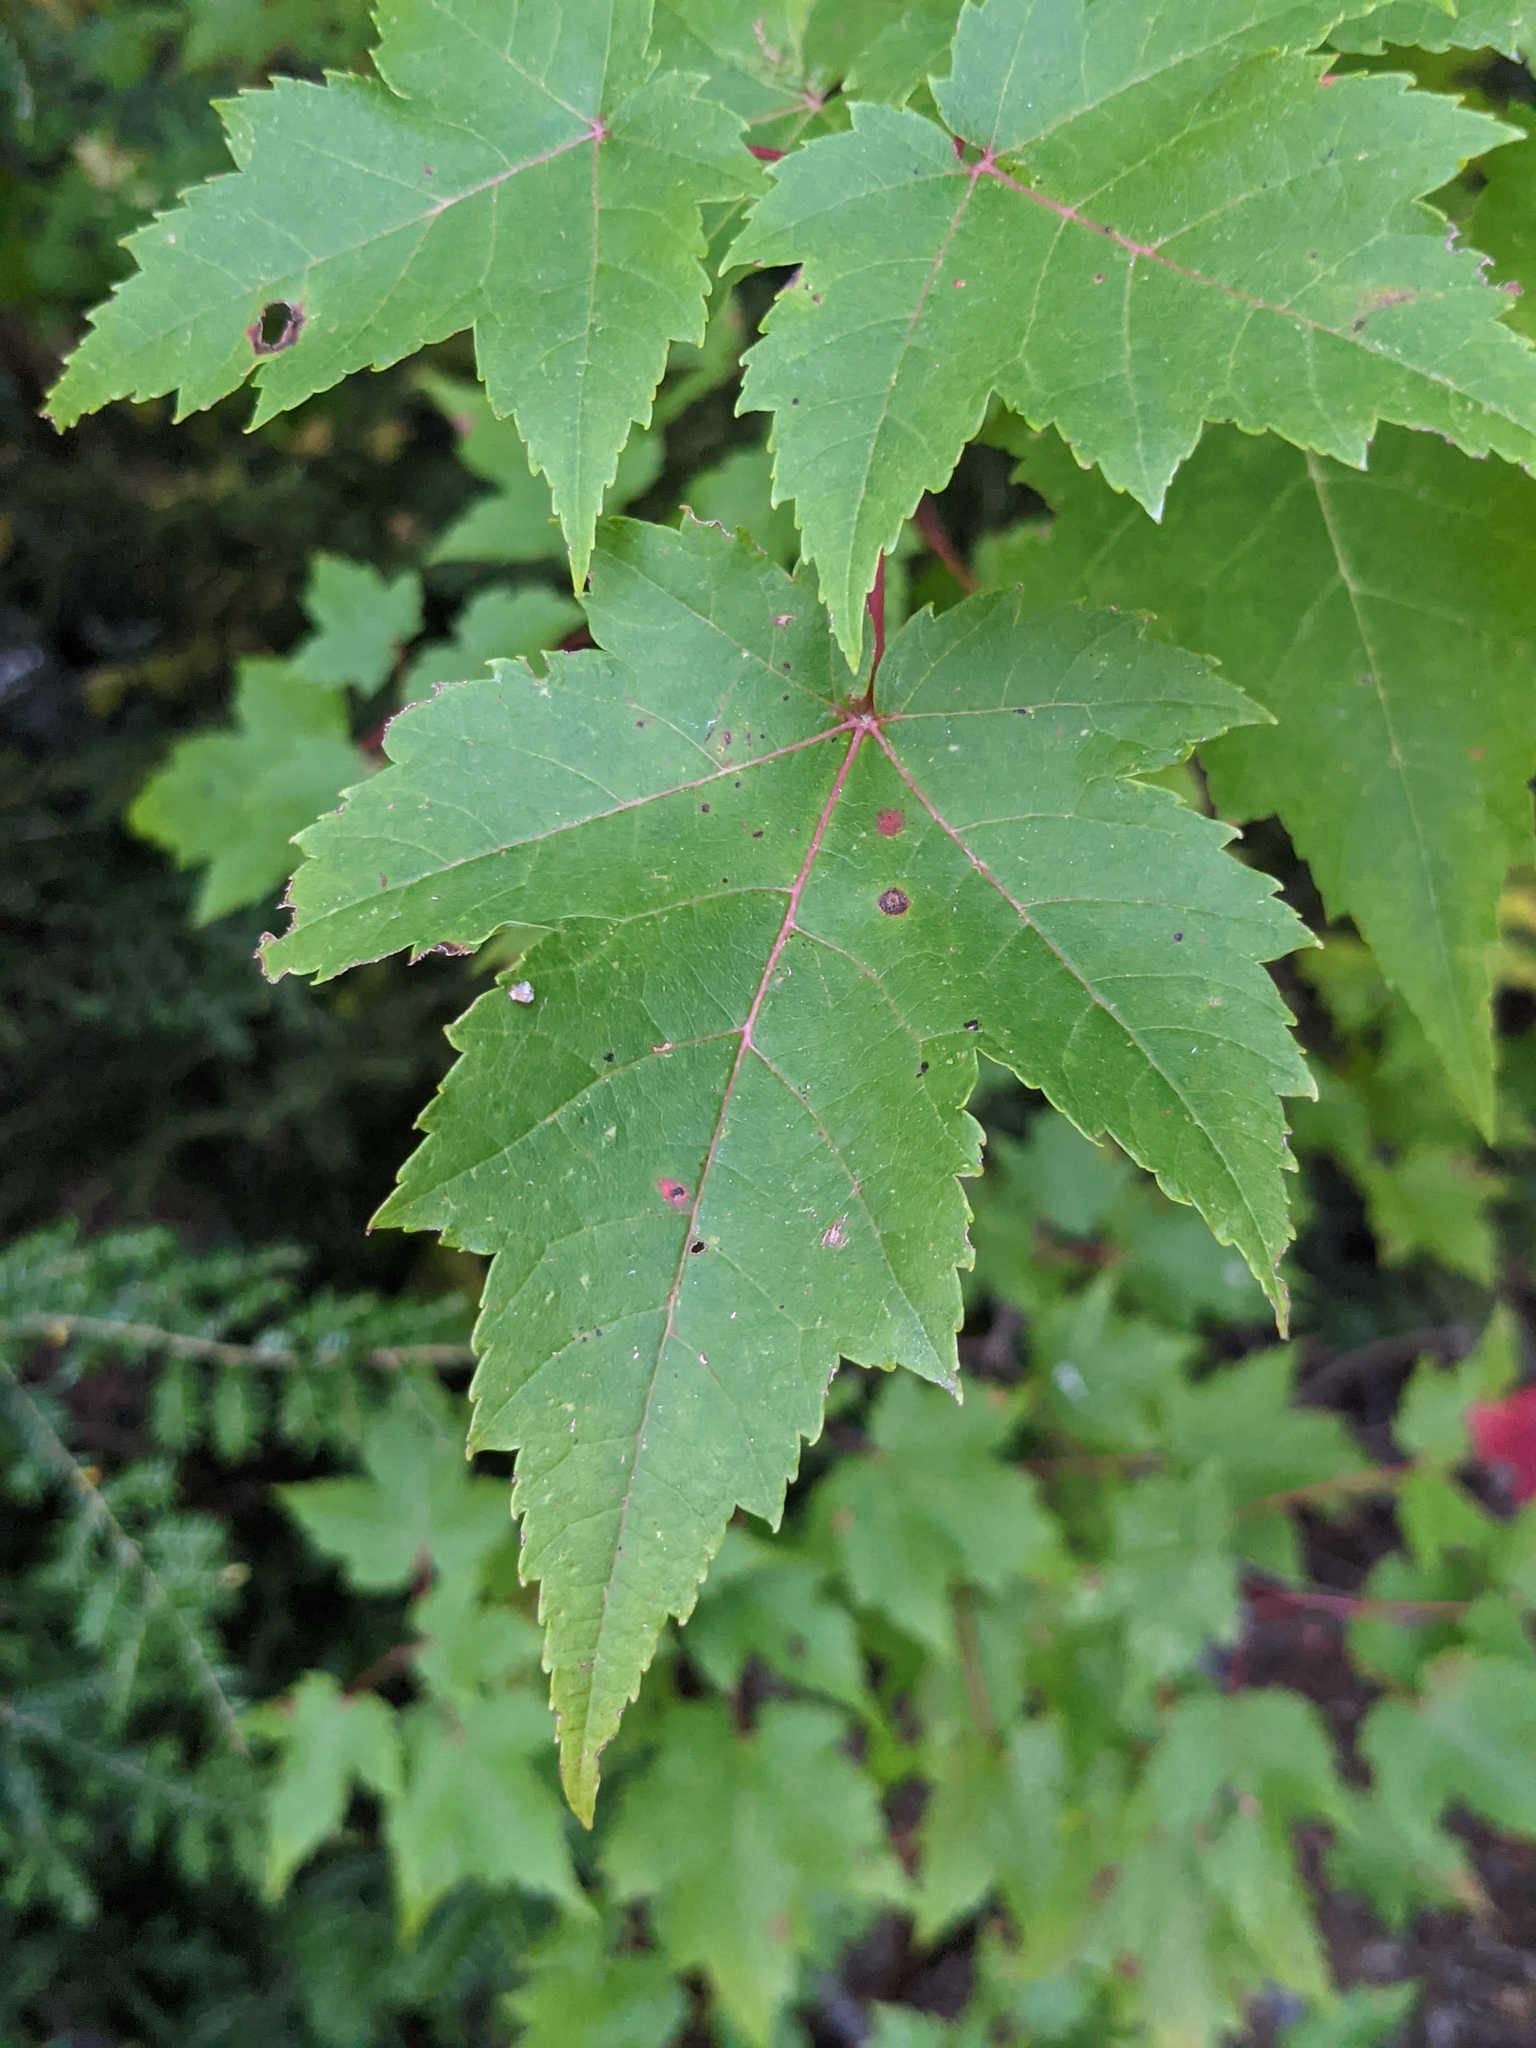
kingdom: Plantae
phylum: Tracheophyta
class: Magnoliopsida
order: Sapindales
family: Sapindaceae
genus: Acer
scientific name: Acer rubrum
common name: Red maple
